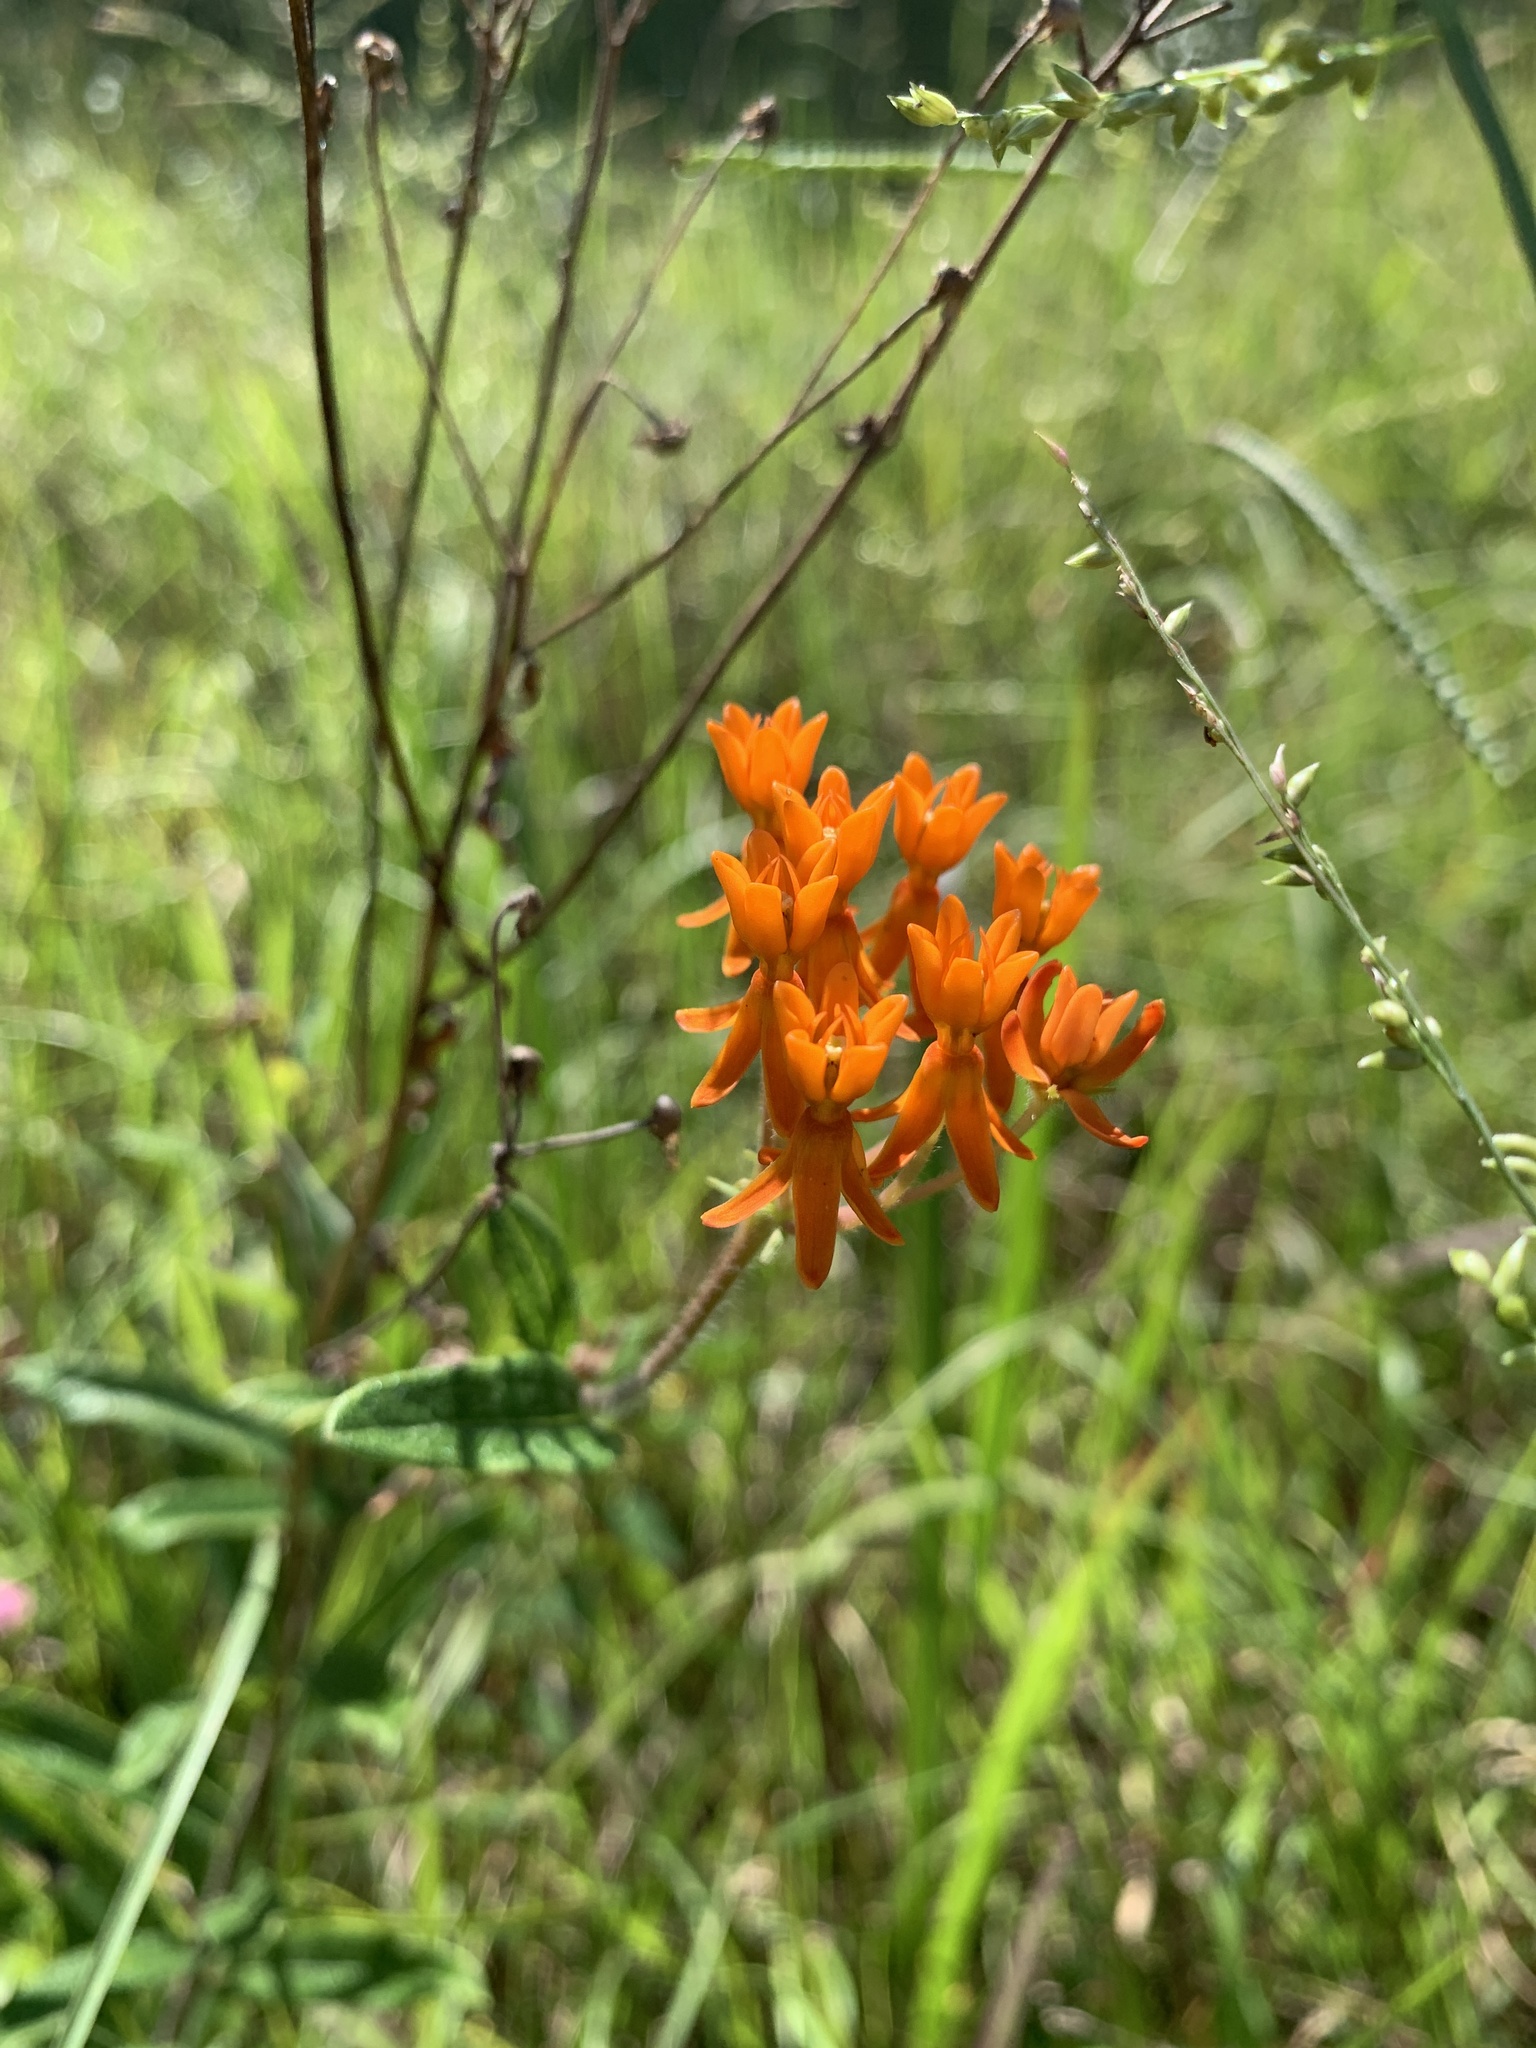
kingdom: Plantae
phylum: Tracheophyta
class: Magnoliopsida
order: Gentianales
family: Apocynaceae
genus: Asclepias
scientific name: Asclepias tuberosa
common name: Butterfly milkweed
